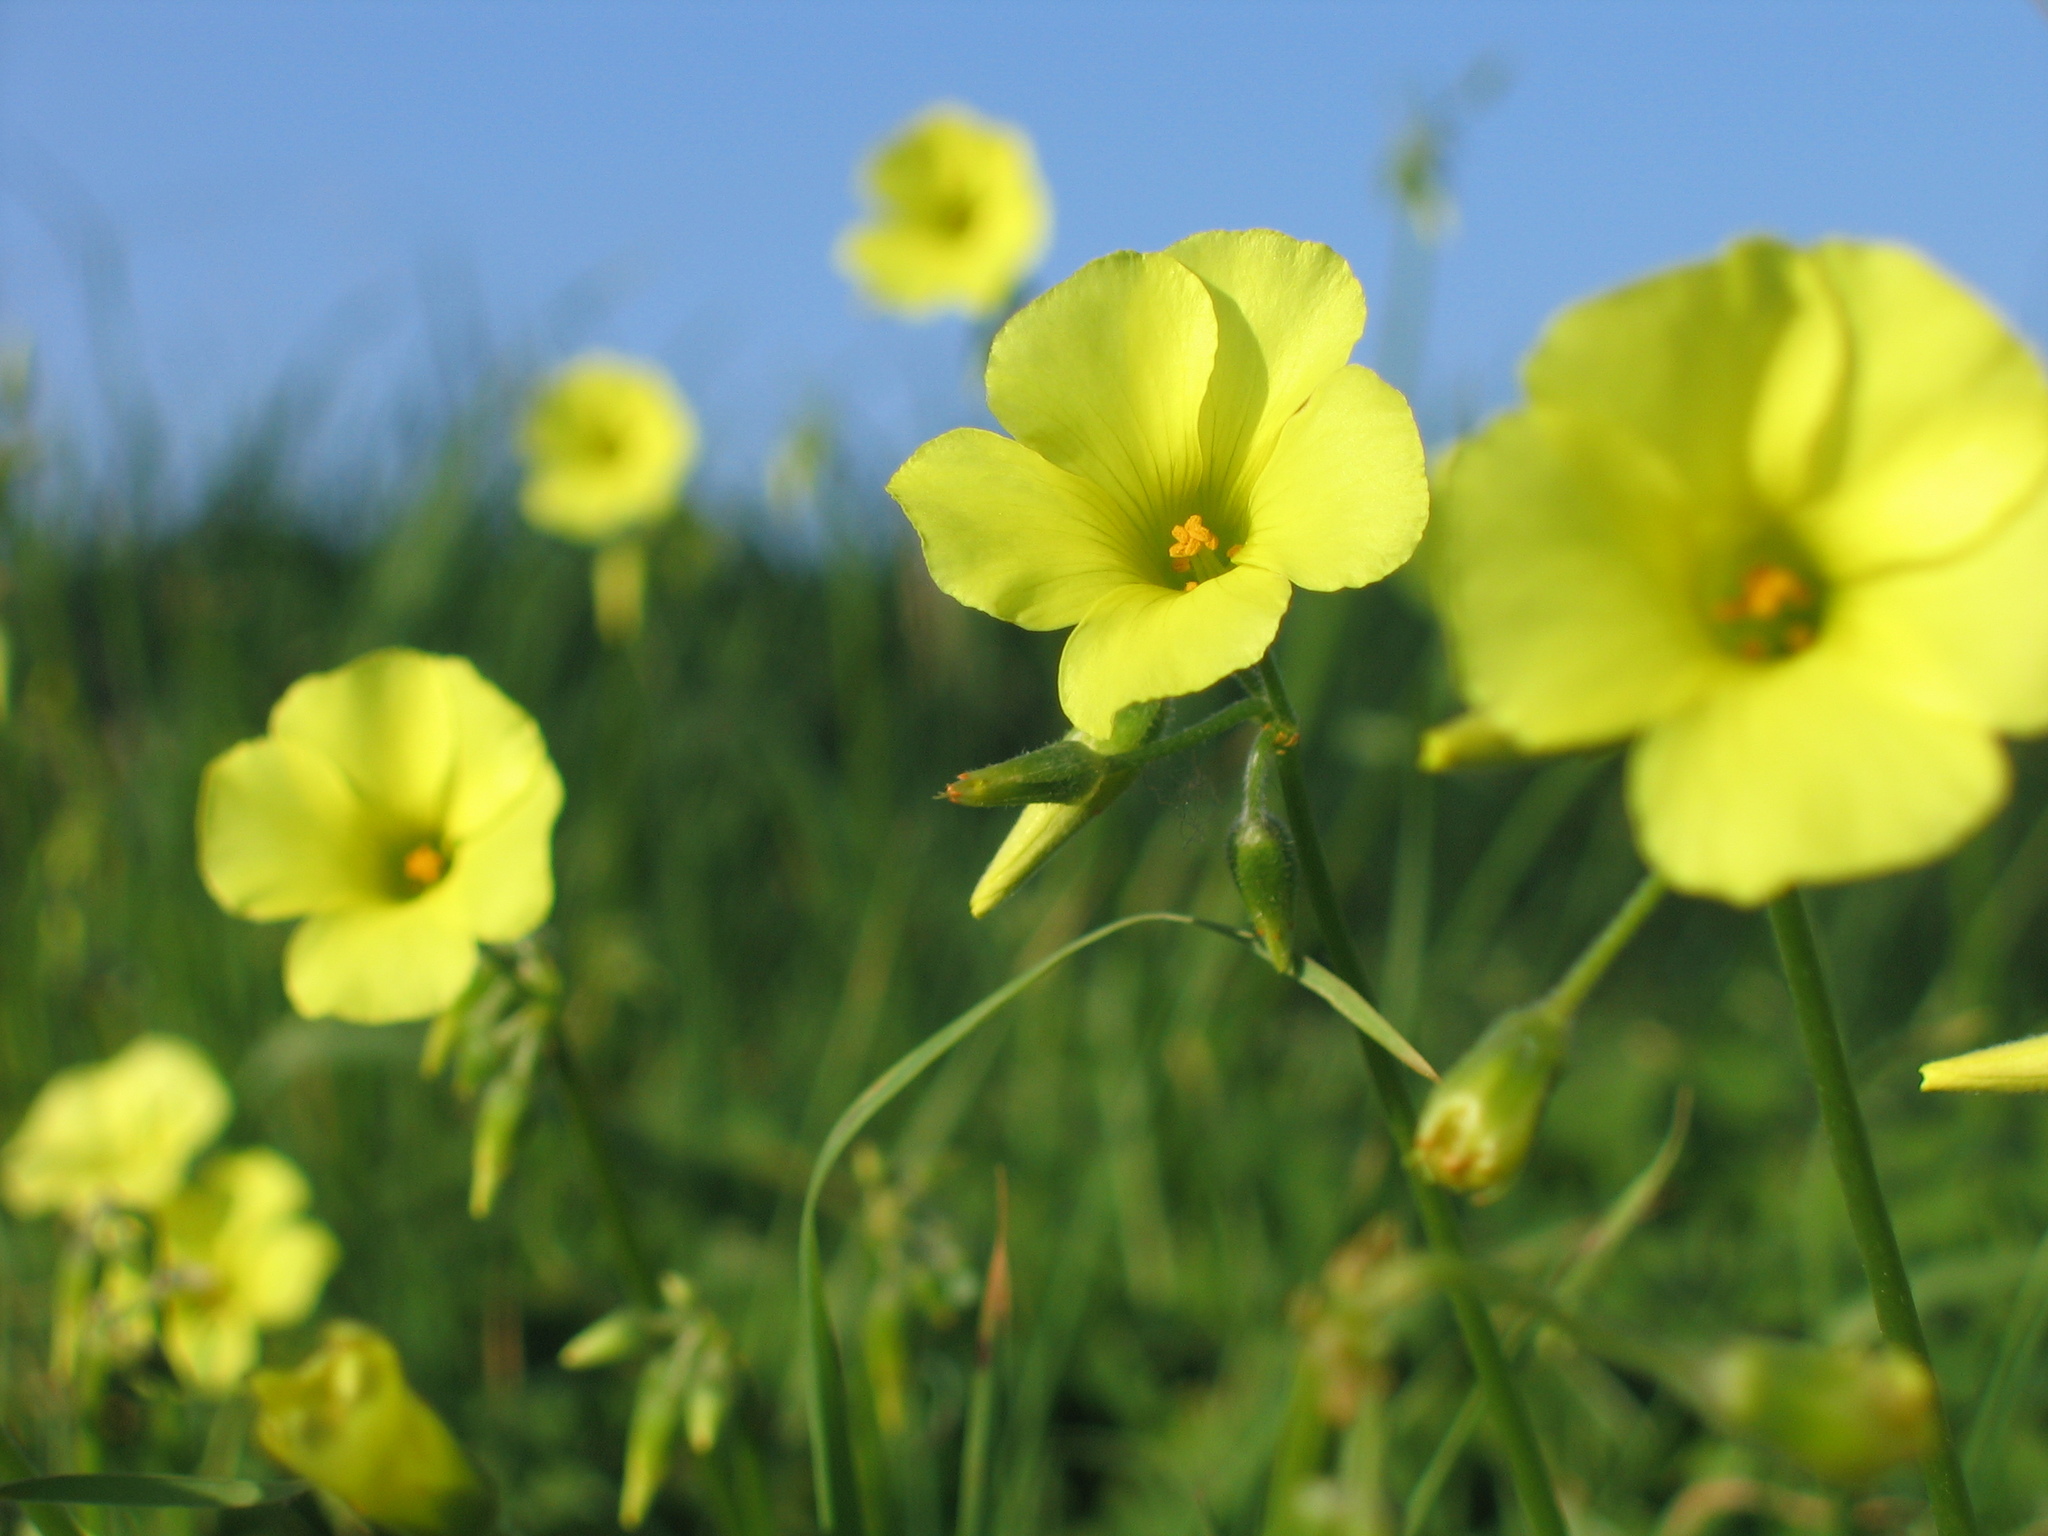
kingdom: Plantae
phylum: Tracheophyta
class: Magnoliopsida
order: Oxalidales
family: Oxalidaceae
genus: Oxalis
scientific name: Oxalis pes-caprae
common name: Bermuda-buttercup
